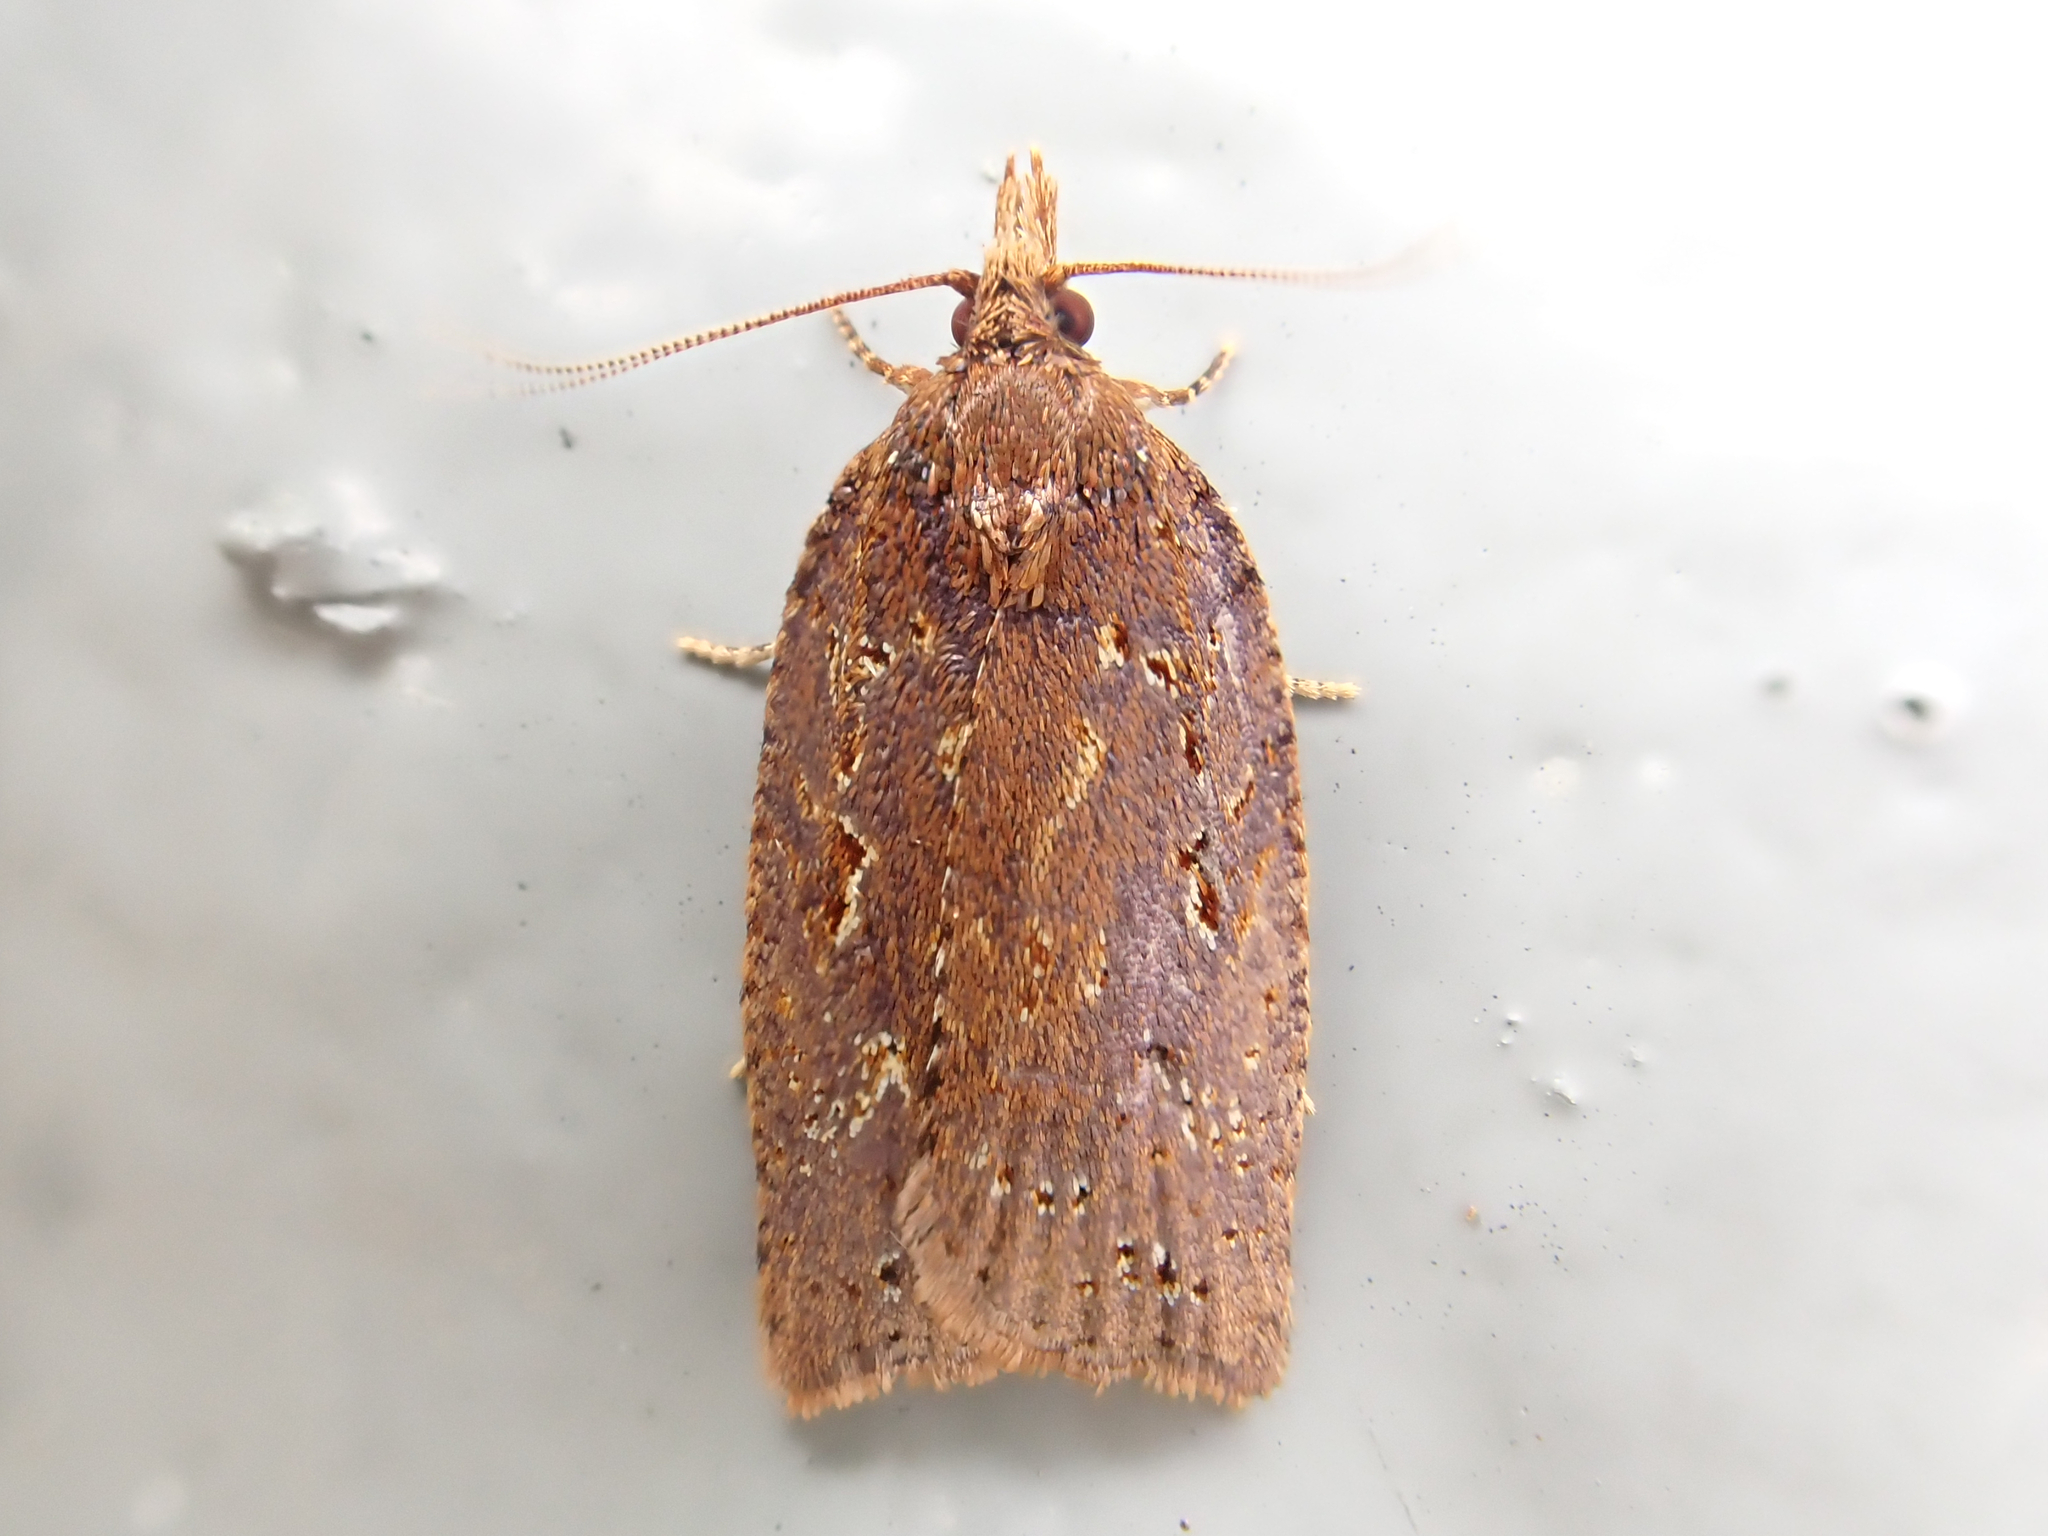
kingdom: Animalia
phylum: Arthropoda
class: Insecta
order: Lepidoptera
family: Tortricidae
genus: Ctenopseustis
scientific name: Ctenopseustis fraterna
